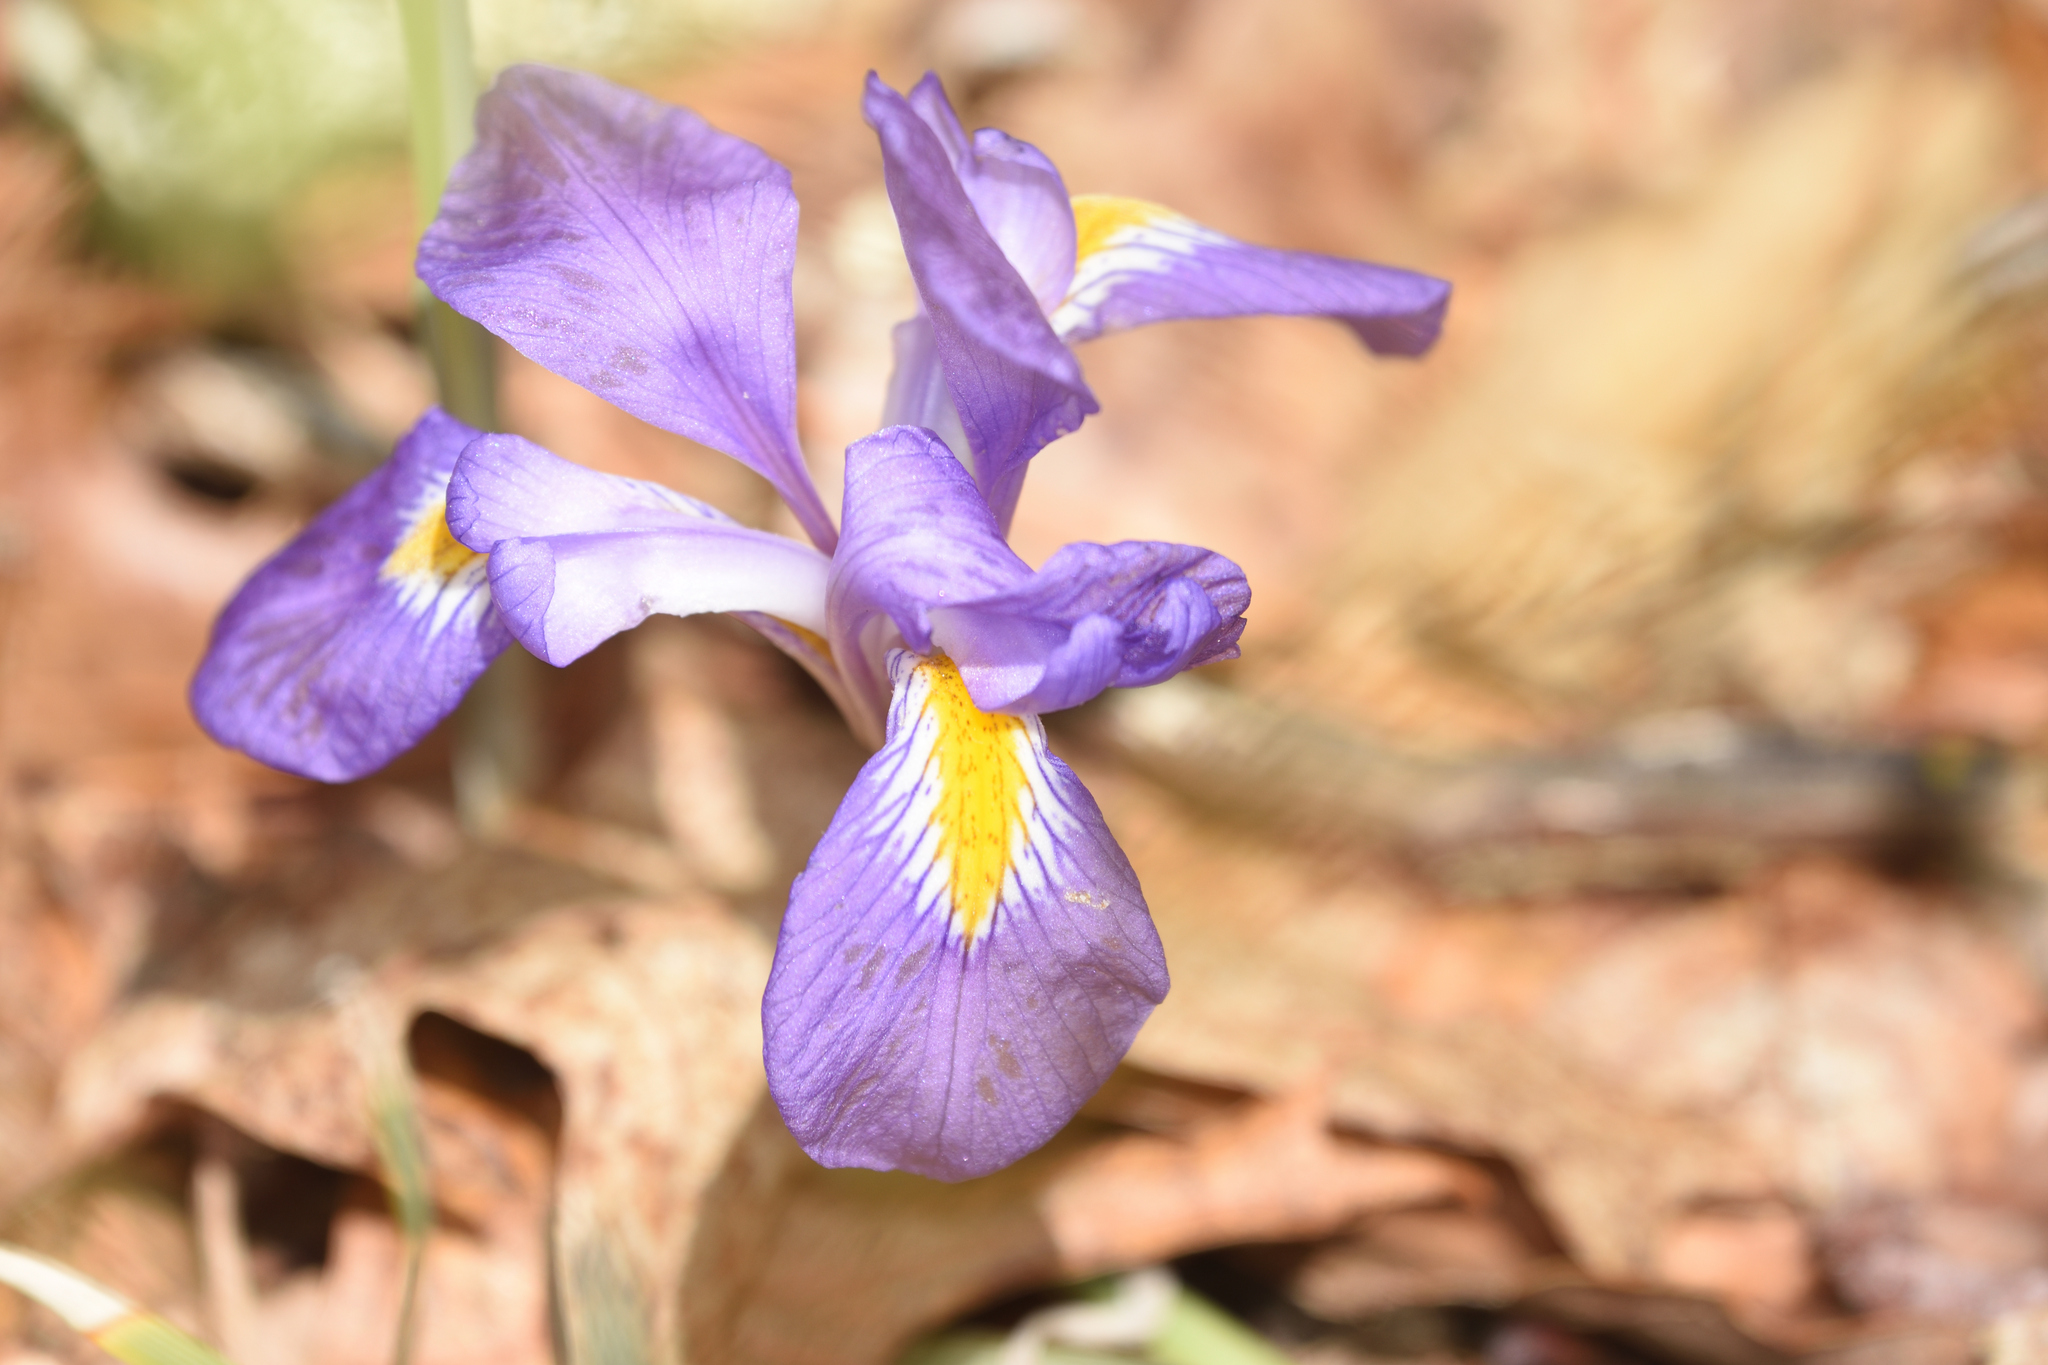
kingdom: Plantae
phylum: Tracheophyta
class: Liliopsida
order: Asparagales
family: Iridaceae
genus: Iris
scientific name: Iris verna
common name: Dwarf iris
